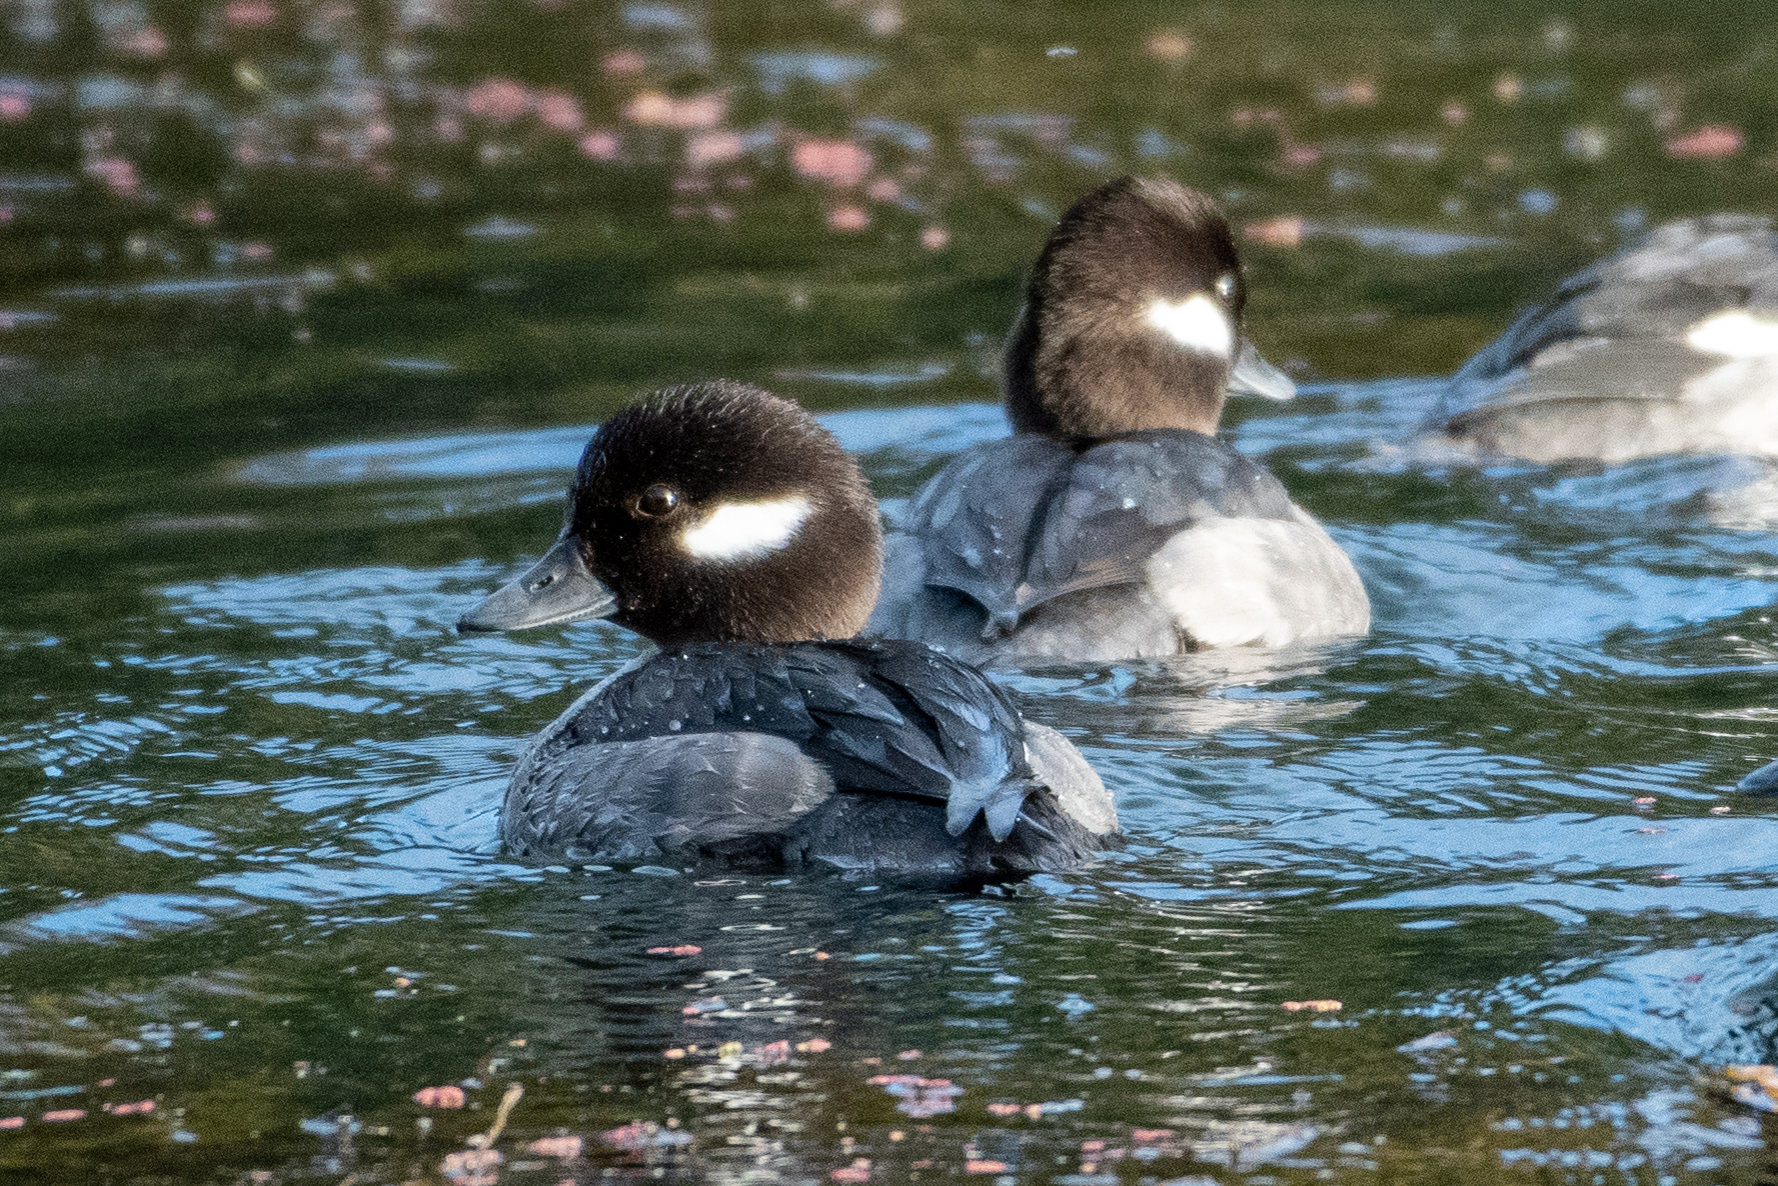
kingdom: Animalia
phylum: Chordata
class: Aves
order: Anseriformes
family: Anatidae
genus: Bucephala
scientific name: Bucephala albeola
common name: Bufflehead
